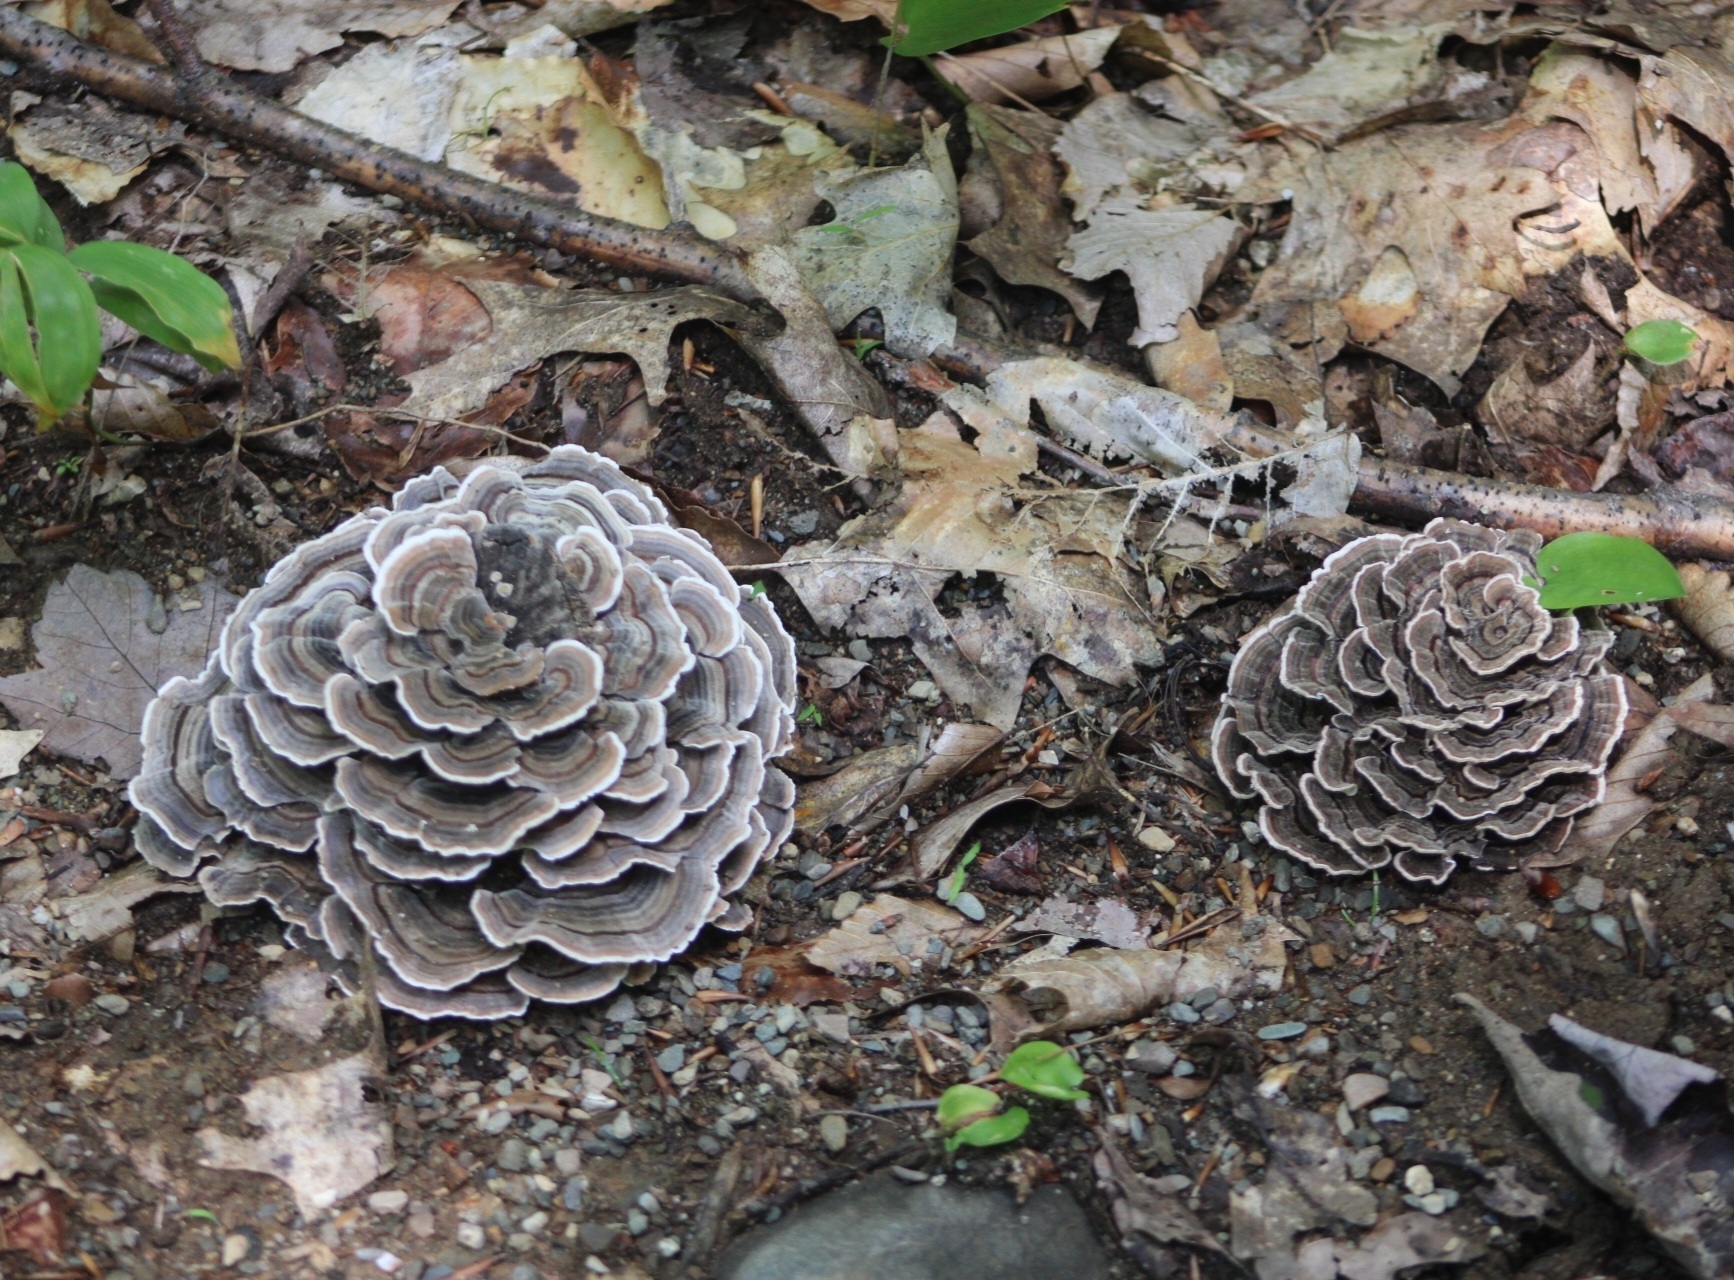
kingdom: Fungi
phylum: Basidiomycota
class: Agaricomycetes
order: Polyporales
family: Polyporaceae
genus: Trametes
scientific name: Trametes versicolor
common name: Turkeytail
